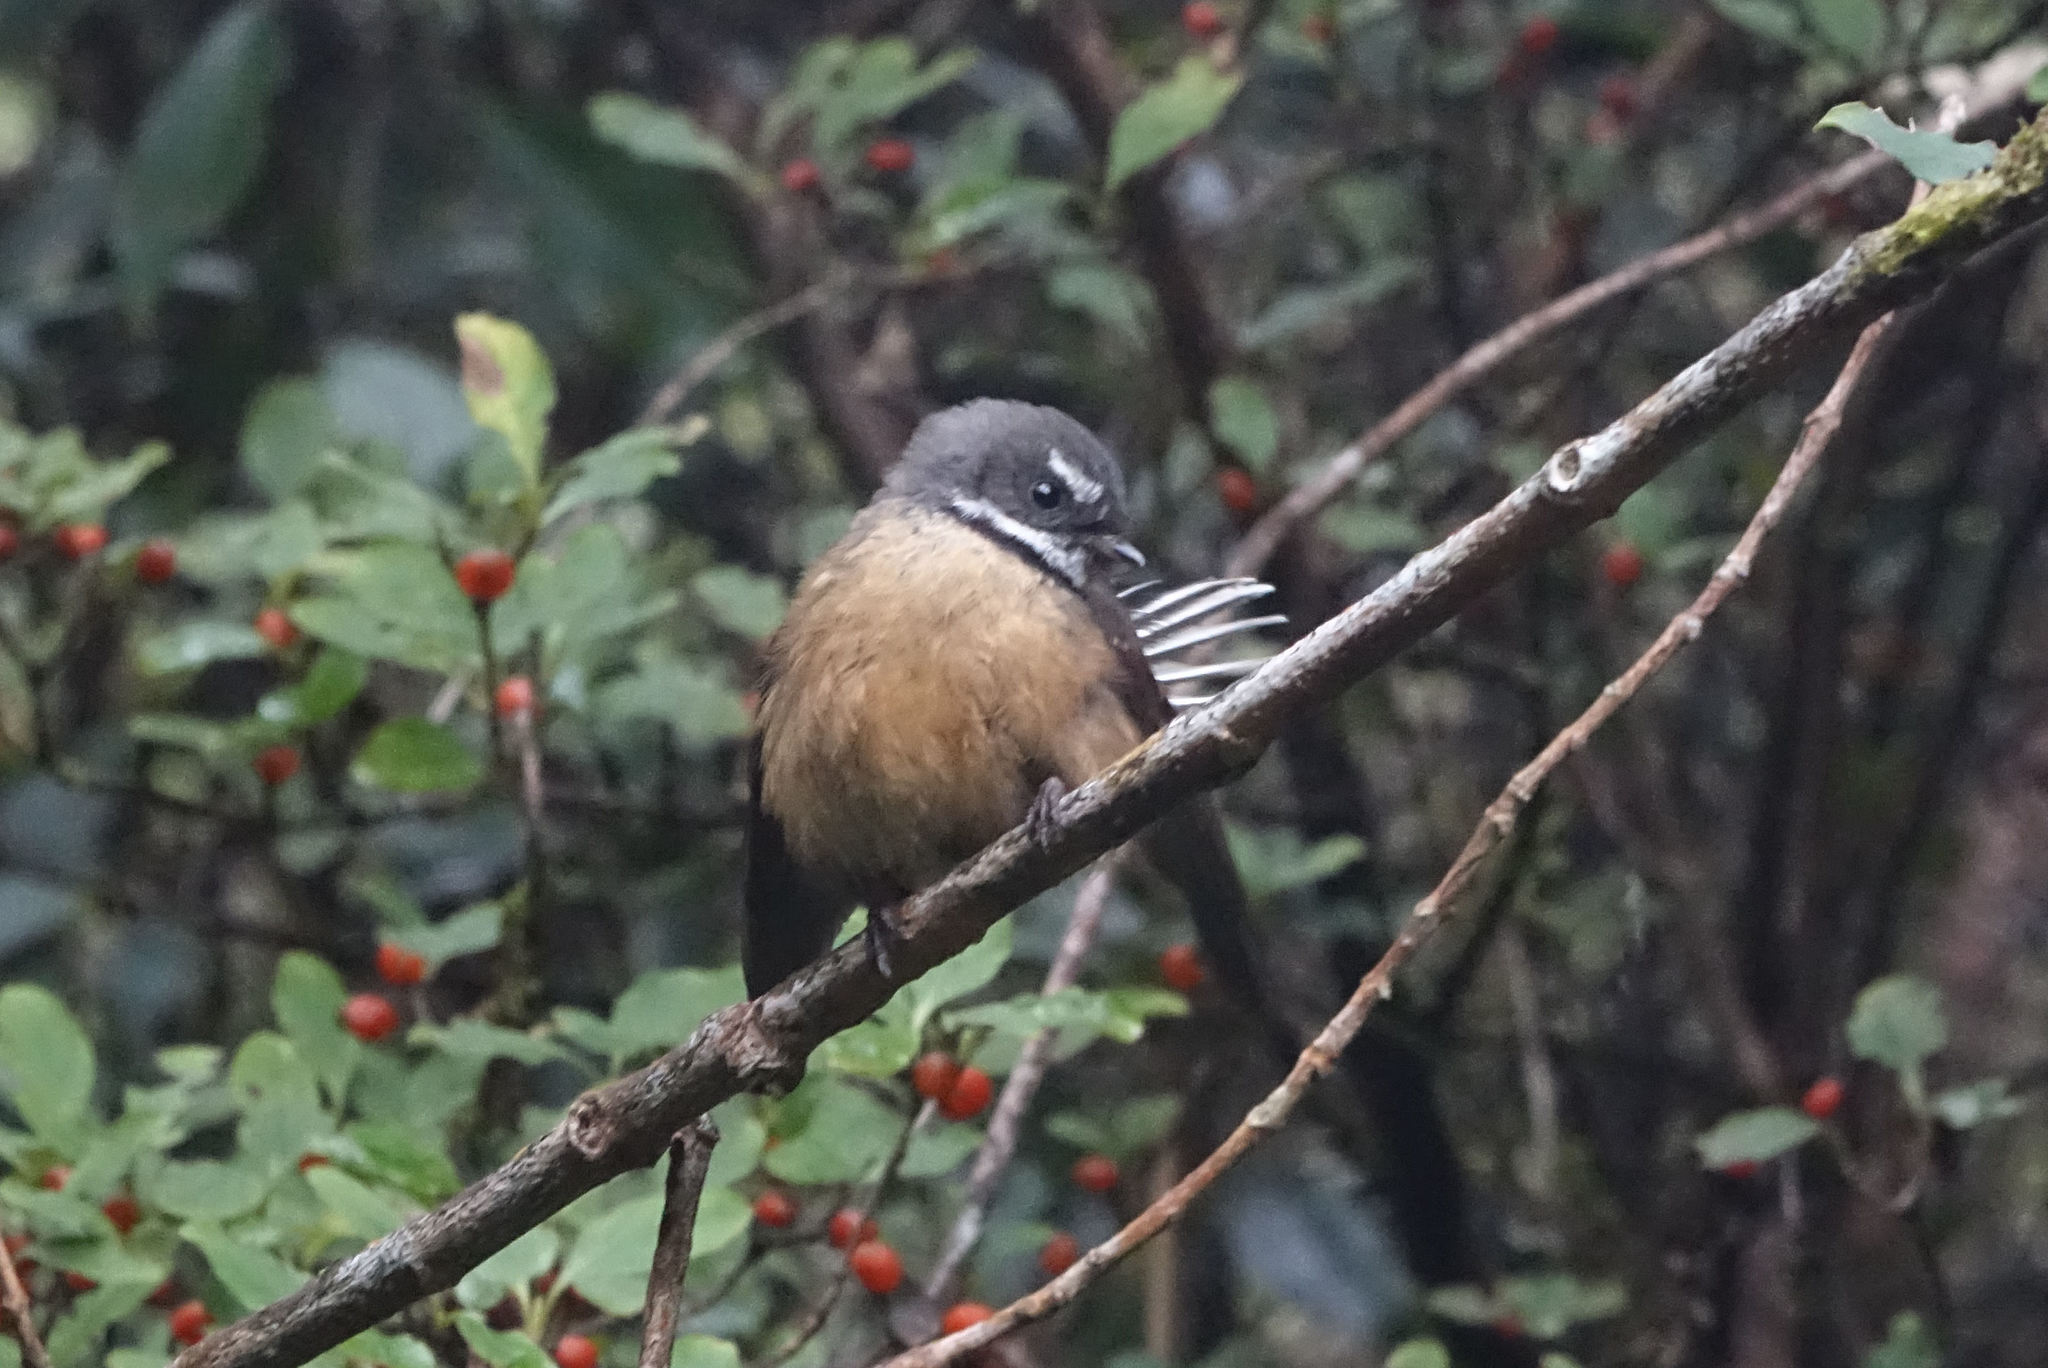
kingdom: Animalia
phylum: Chordata
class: Aves
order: Passeriformes
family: Rhipiduridae
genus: Rhipidura
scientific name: Rhipidura fuliginosa
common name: New zealand fantail
